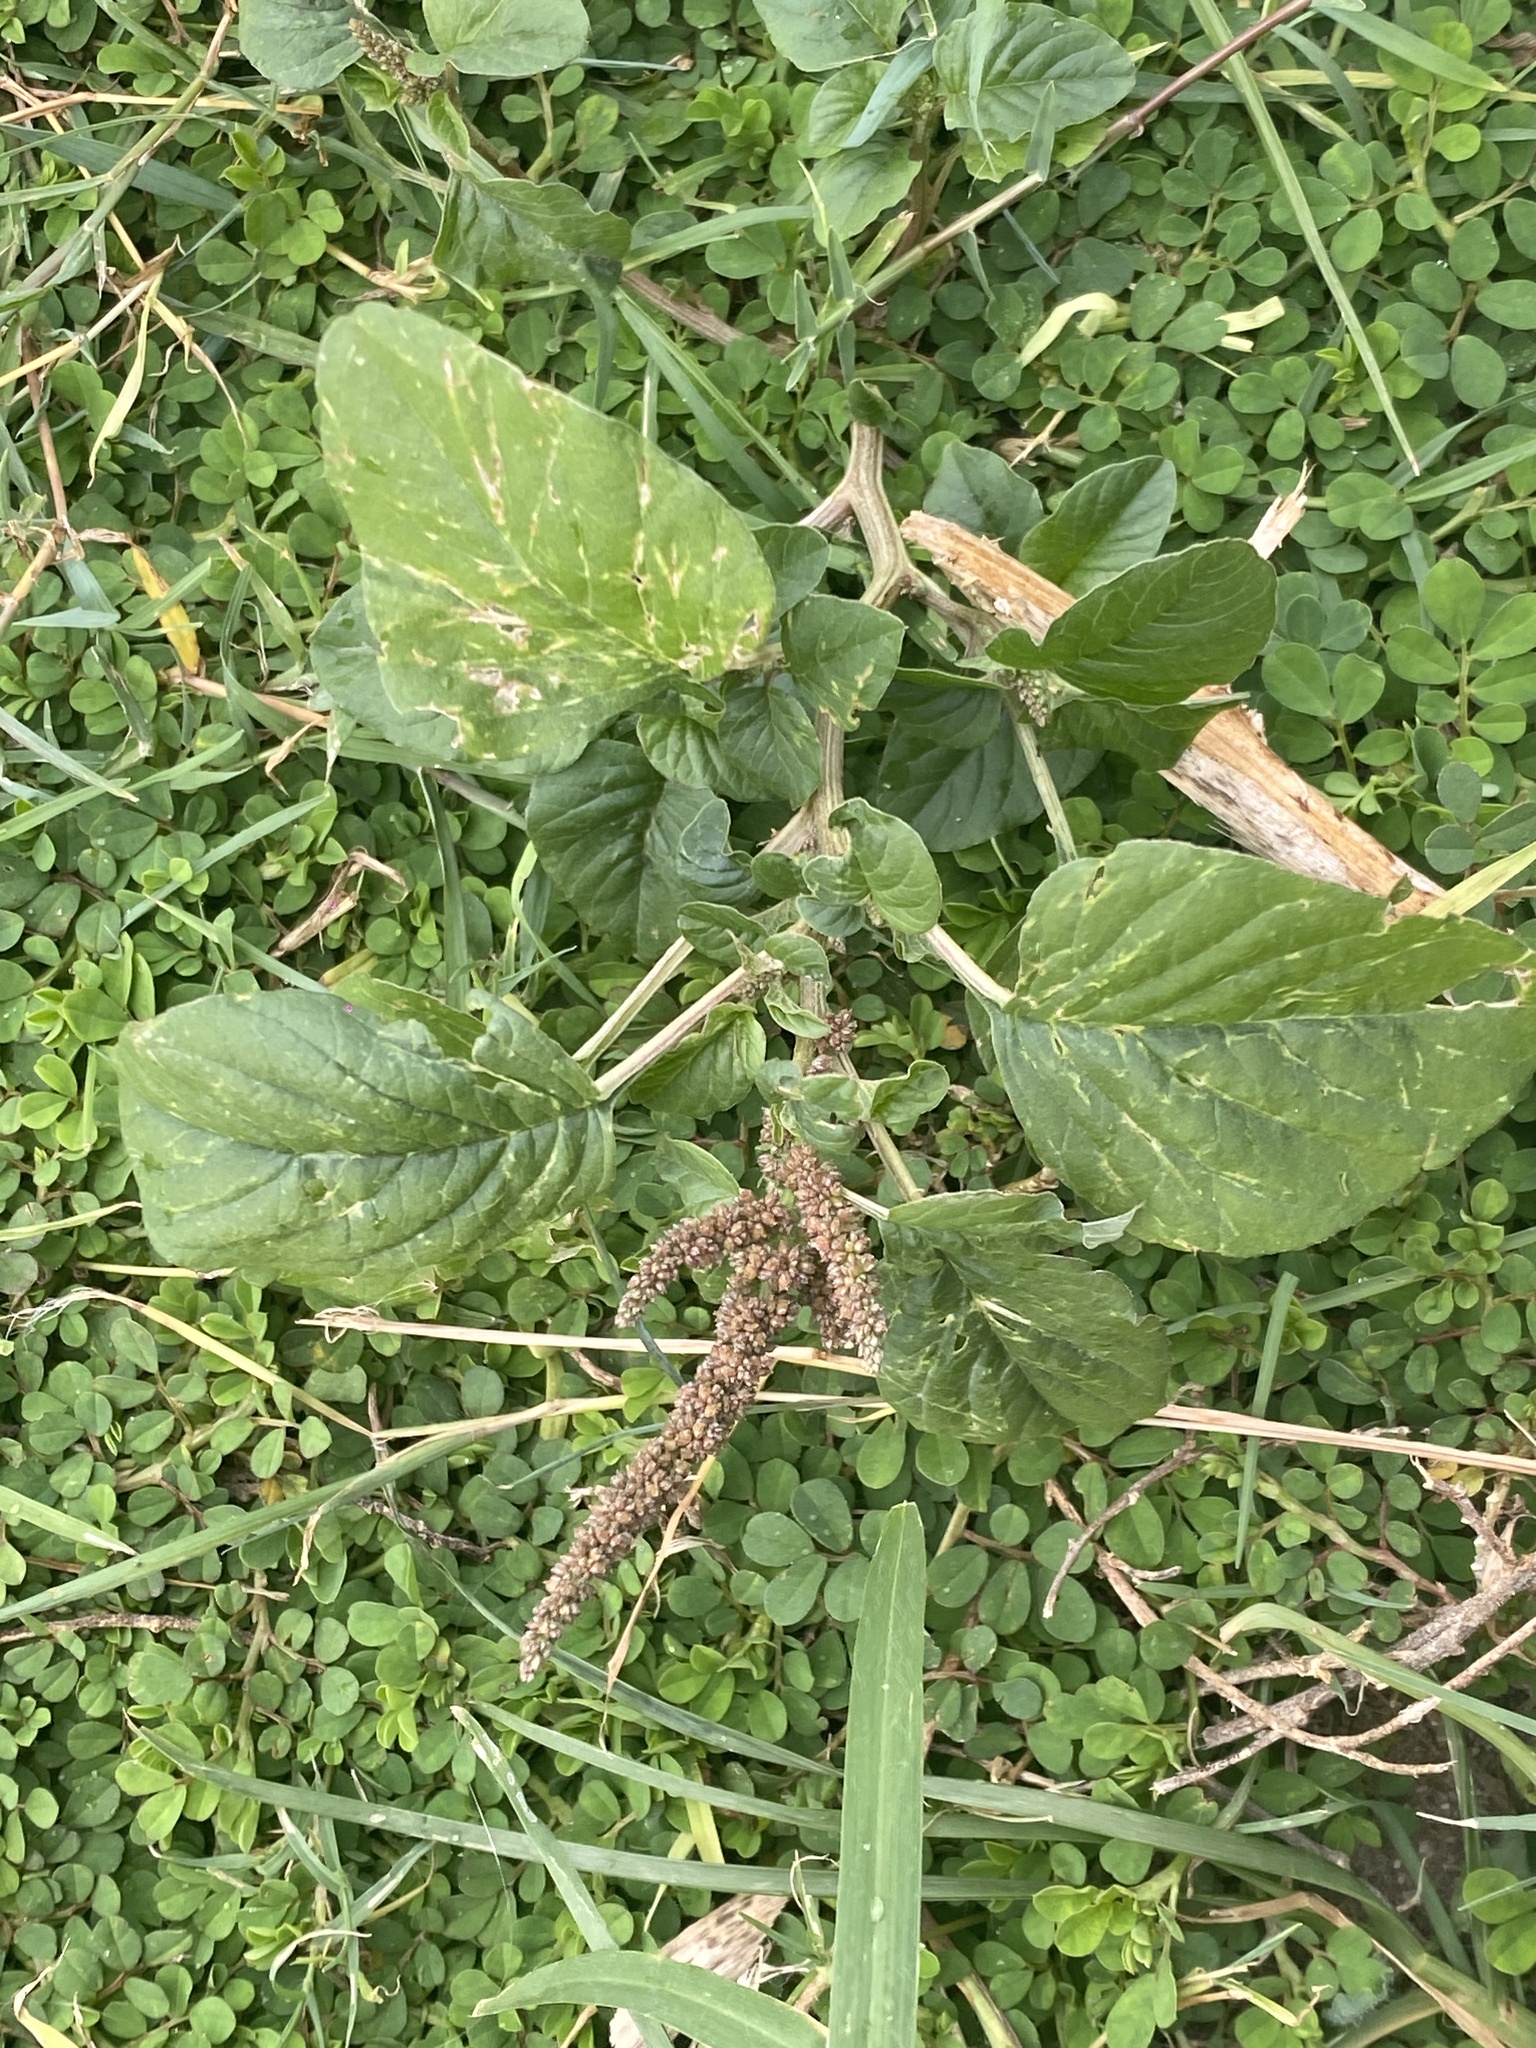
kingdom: Plantae
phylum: Tracheophyta
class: Magnoliopsida
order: Caryophyllales
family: Amaranthaceae
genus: Amaranthus
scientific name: Amaranthus viridis
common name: Slender amaranth
